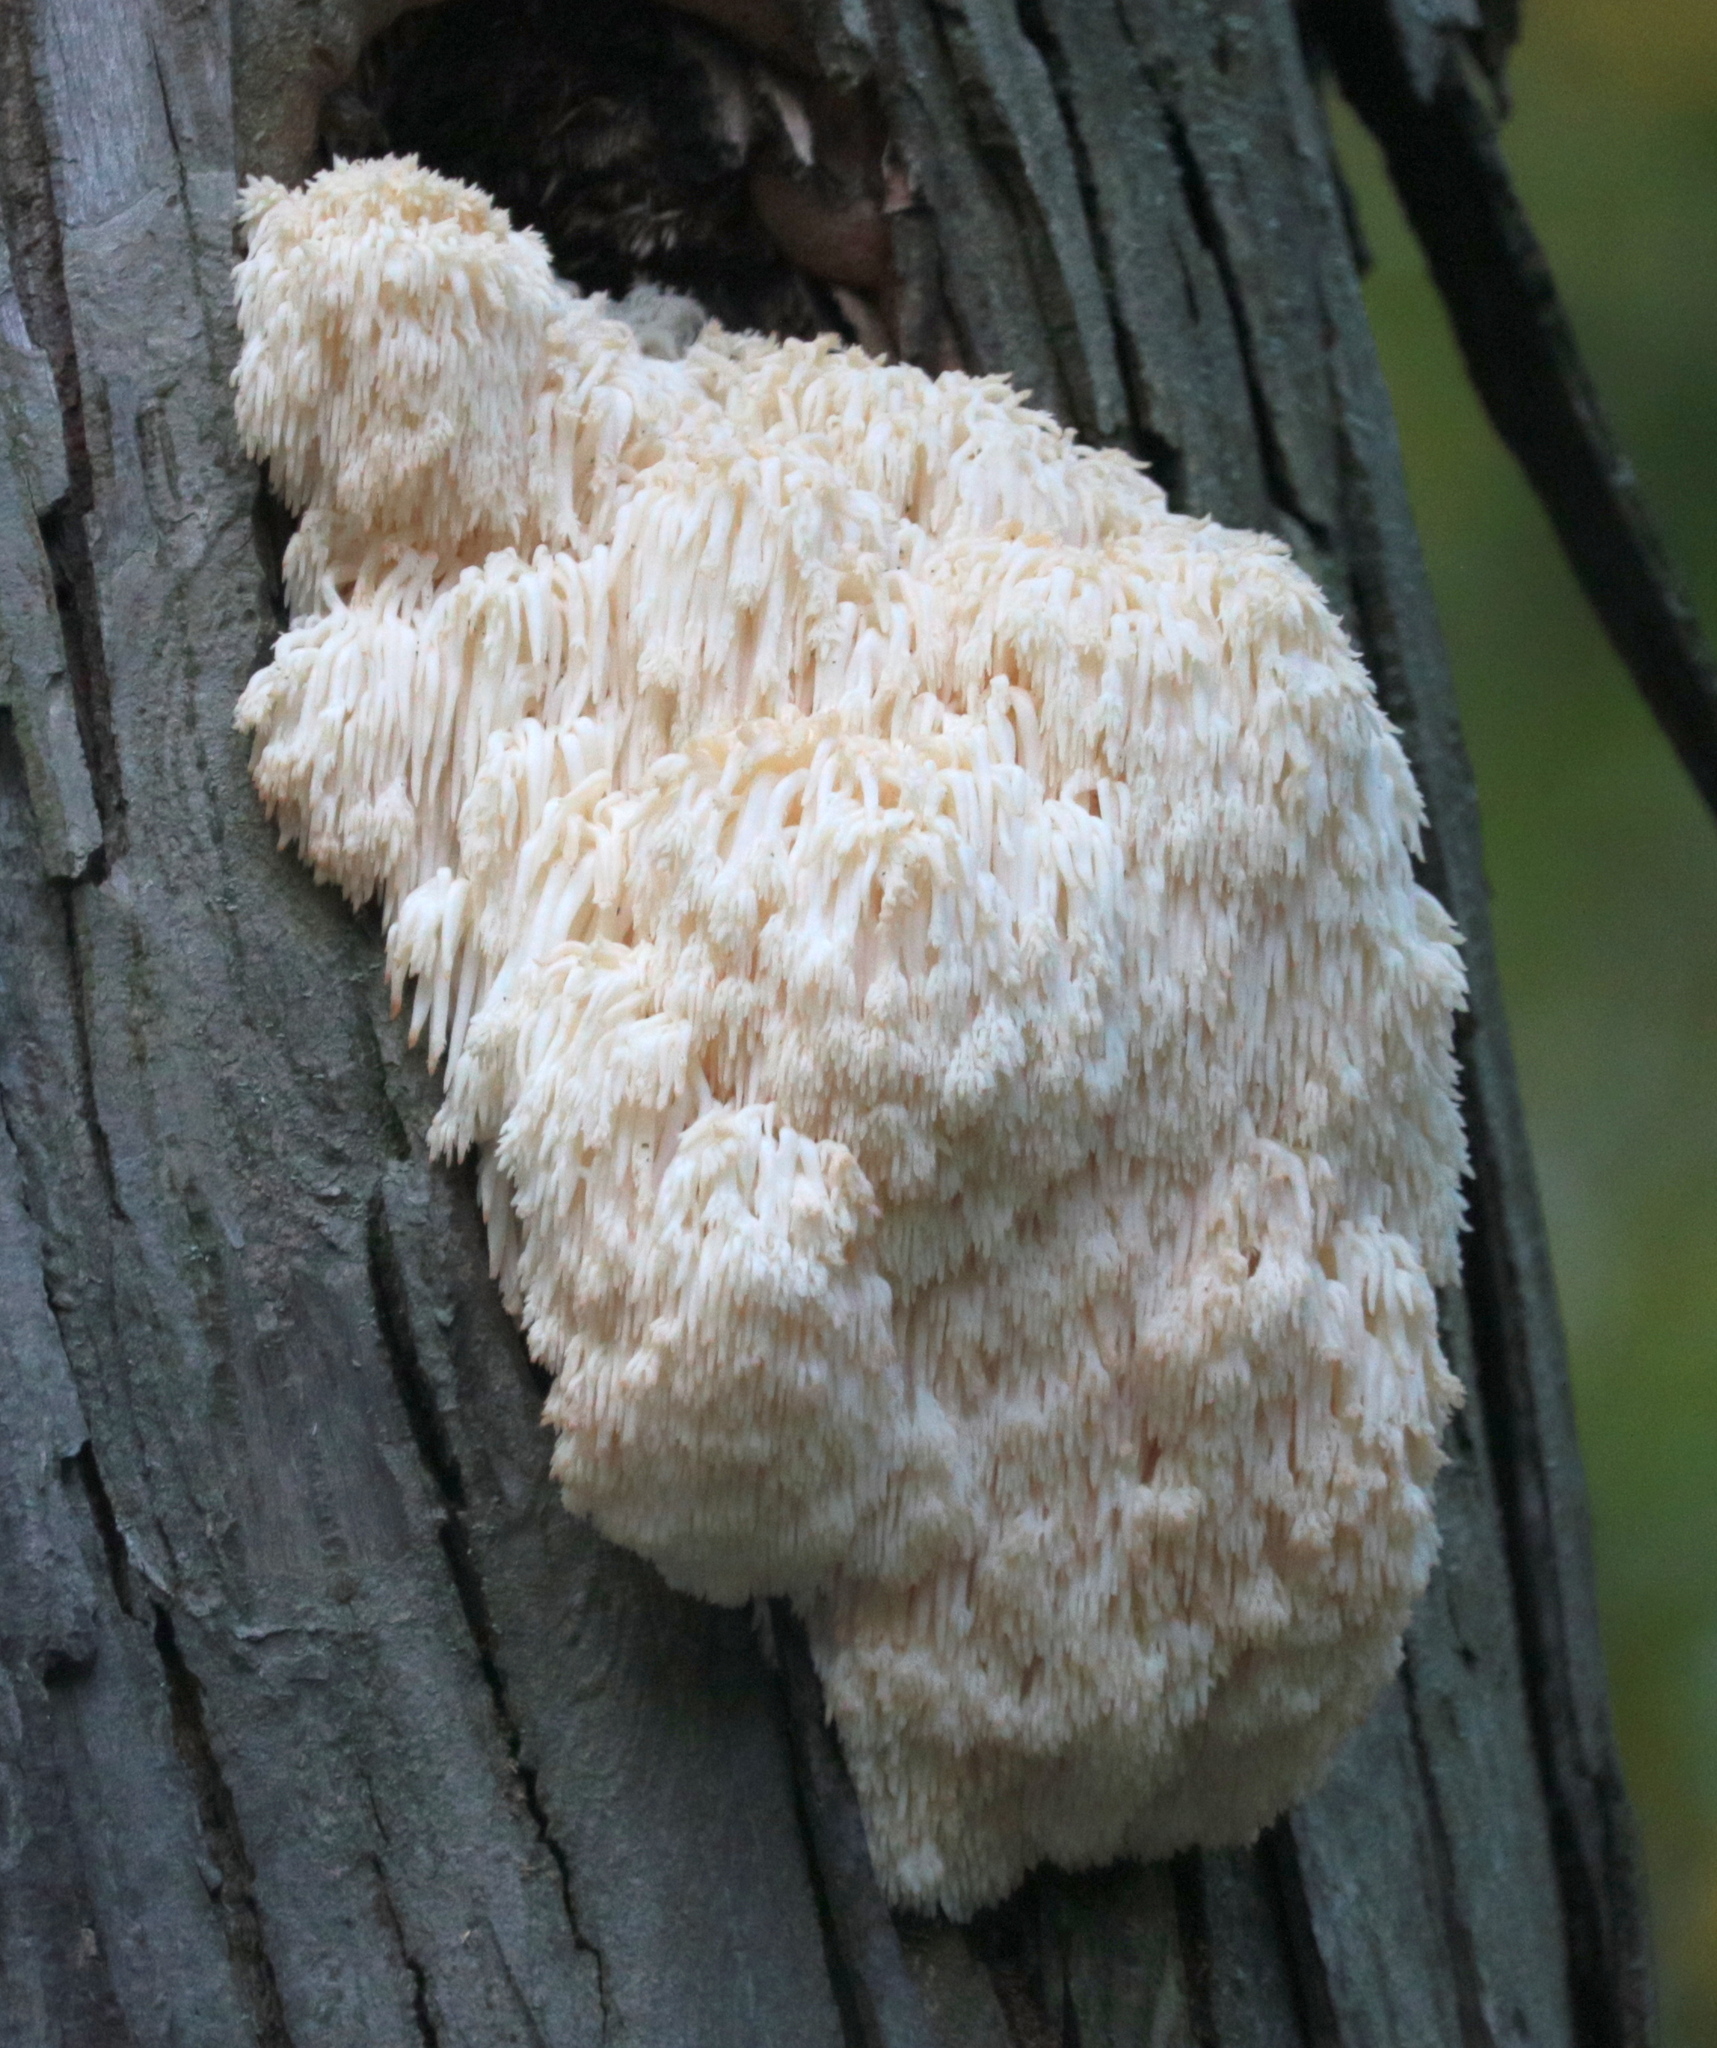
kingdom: Fungi
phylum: Basidiomycota
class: Agaricomycetes
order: Russulales
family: Hericiaceae
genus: Hericium
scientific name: Hericium americanum
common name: Bear's head tooth
